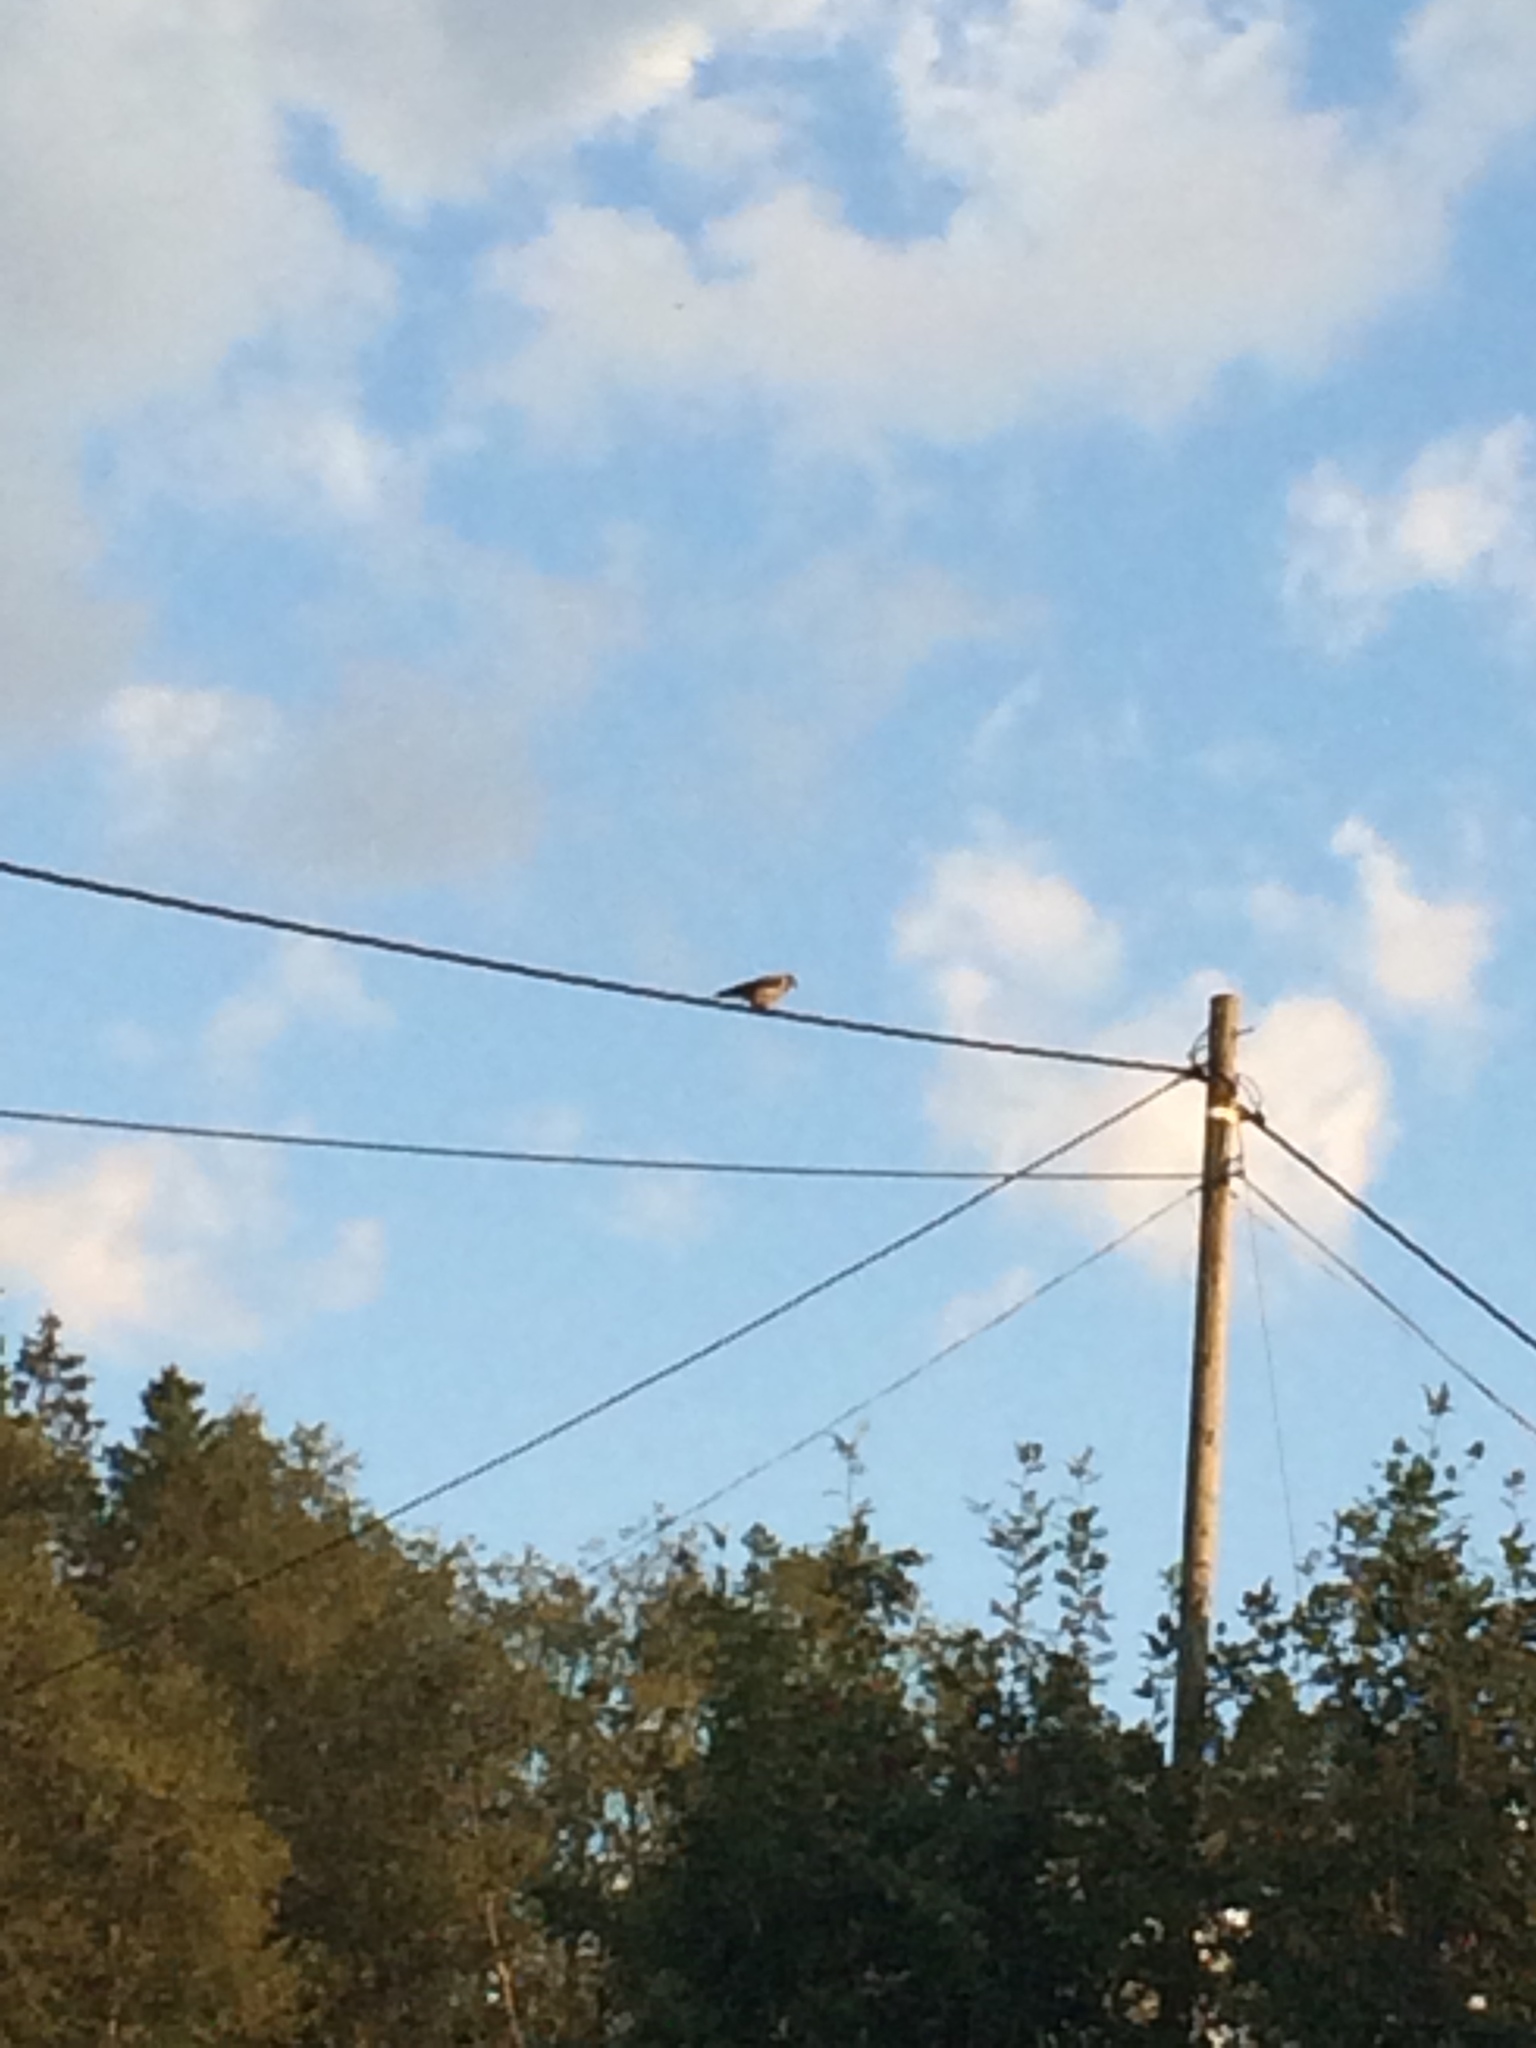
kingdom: Animalia
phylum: Chordata
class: Aves
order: Passeriformes
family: Corvidae
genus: Corvus
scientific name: Corvus cornix
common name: Hooded crow
